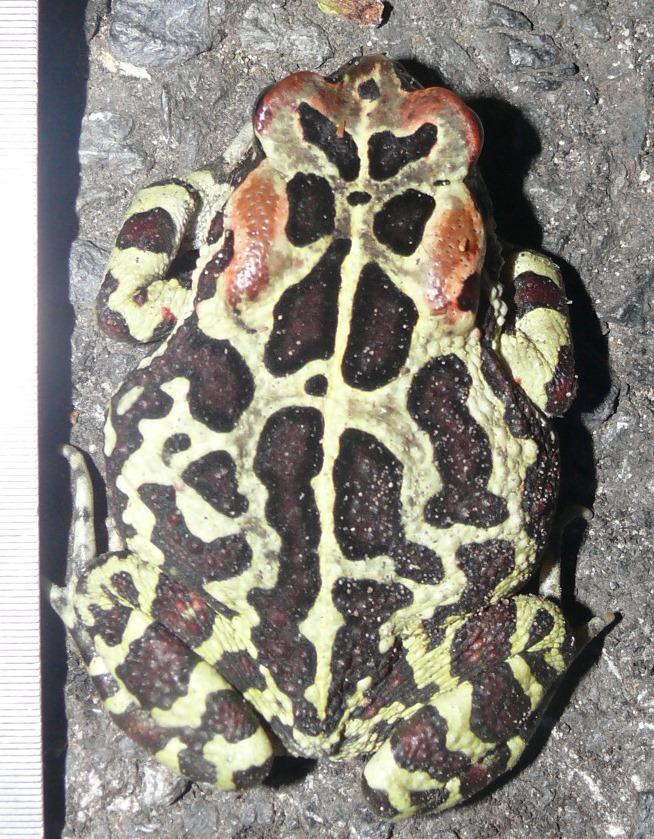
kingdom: Animalia
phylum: Chordata
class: Amphibia
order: Anura
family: Bufonidae
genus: Sclerophrys
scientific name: Sclerophrys pantherina
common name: Panther toad
